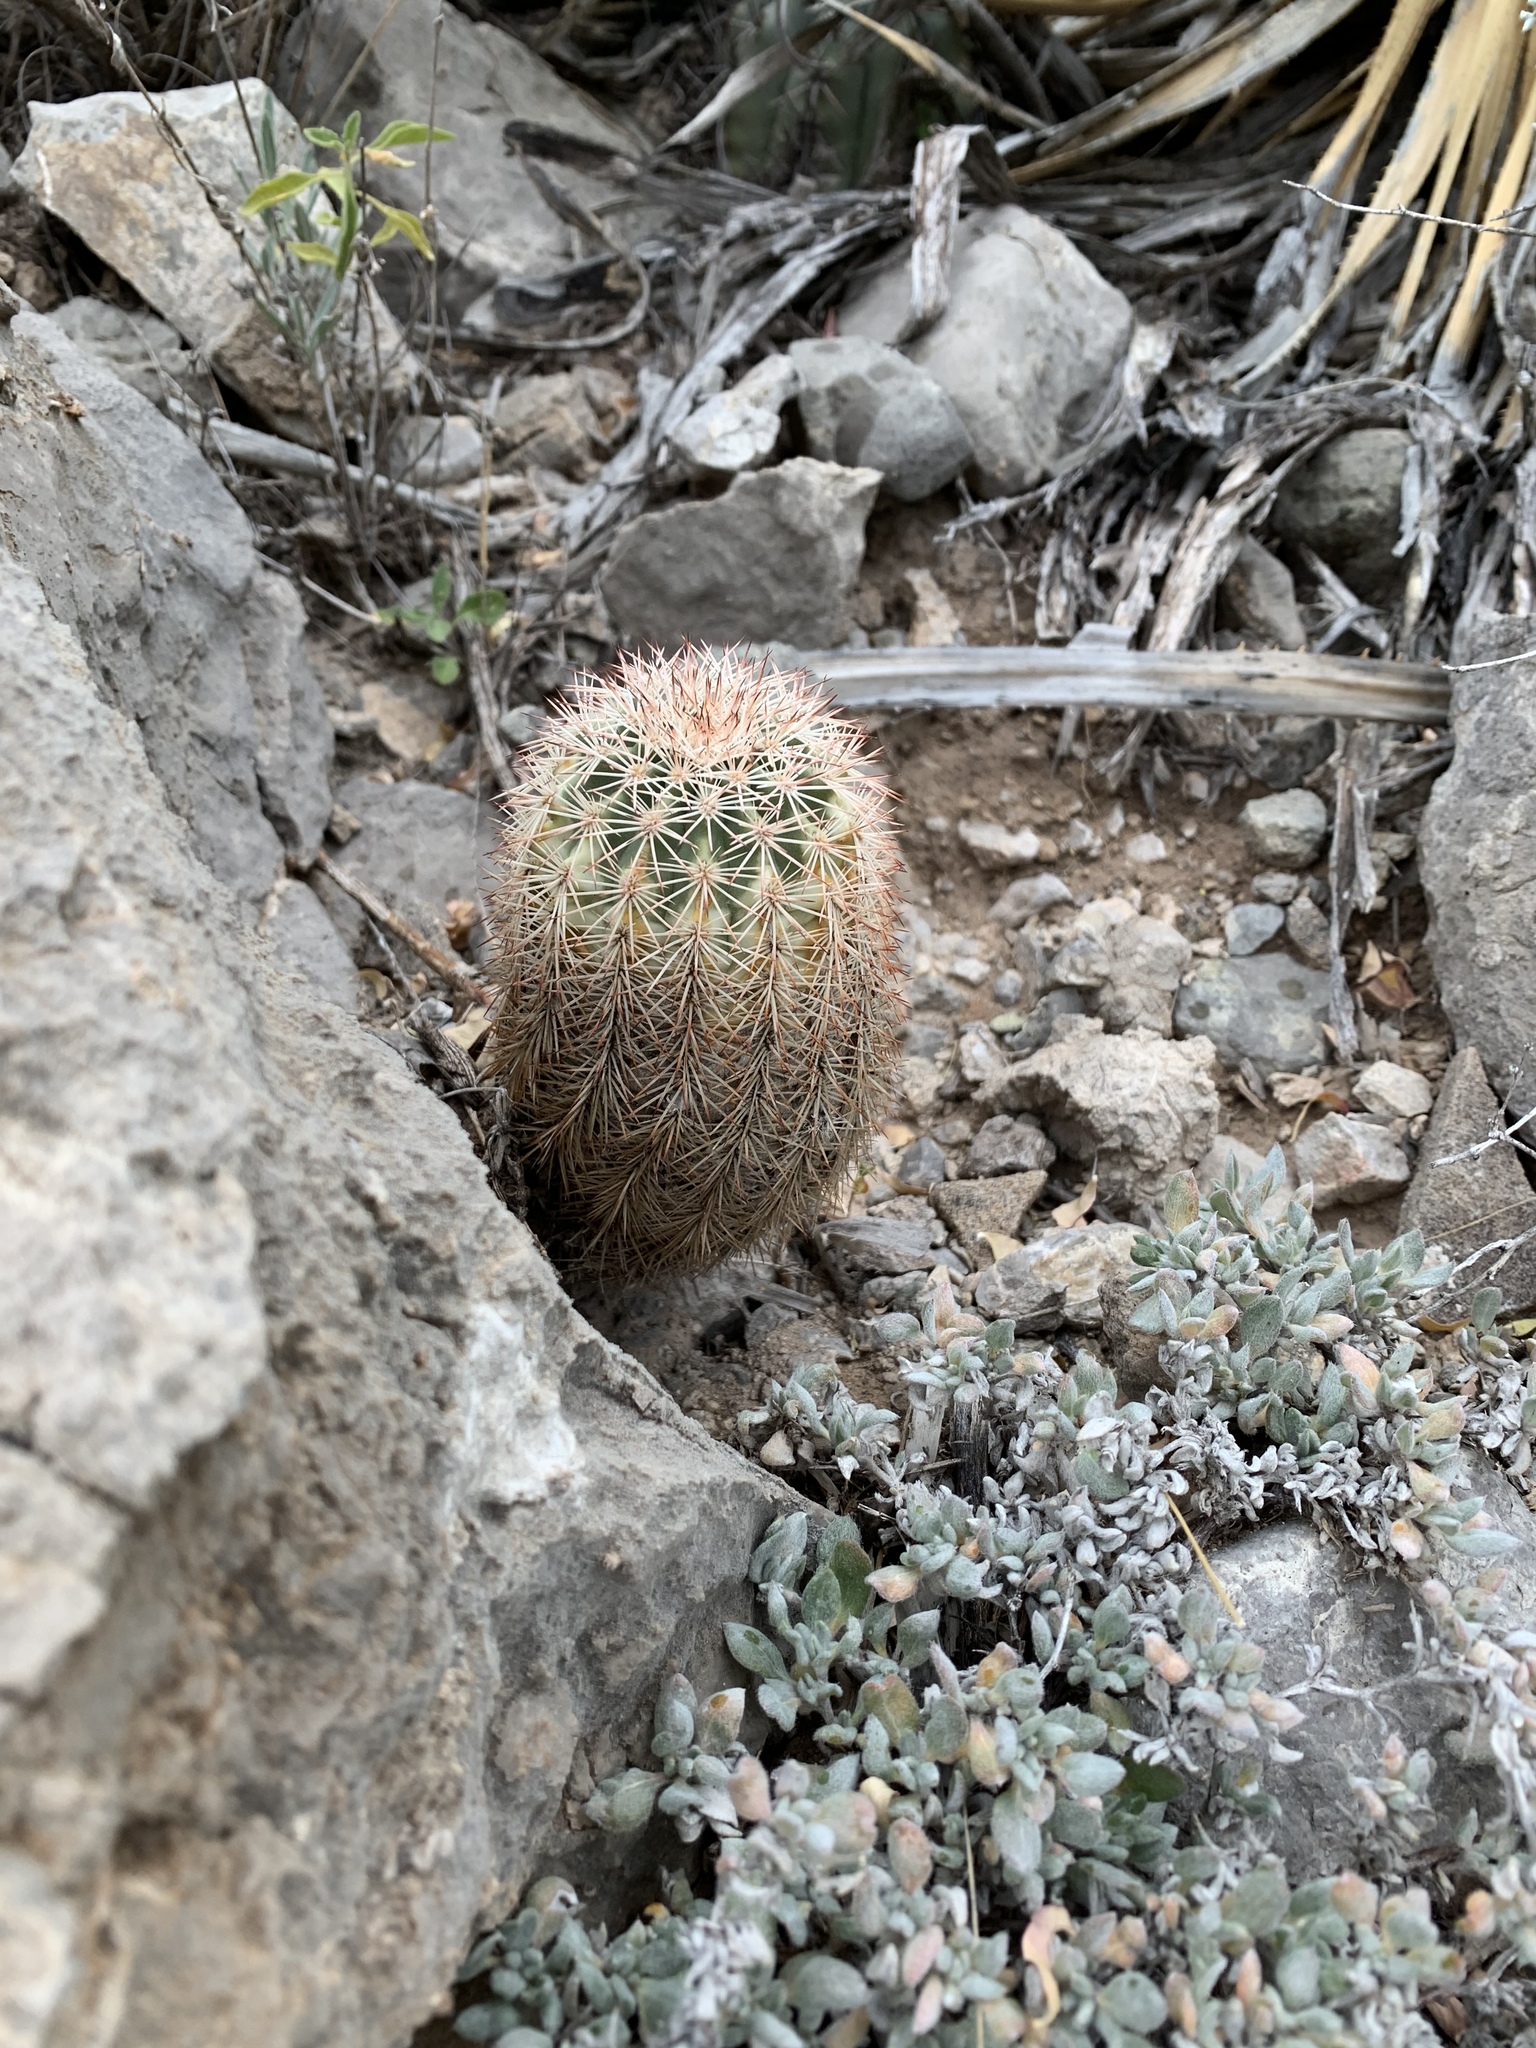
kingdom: Plantae
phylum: Tracheophyta
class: Magnoliopsida
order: Caryophyllales
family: Cactaceae
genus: Echinocereus
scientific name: Echinocereus dasyacanthus
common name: Spiny hedgehog cactus
